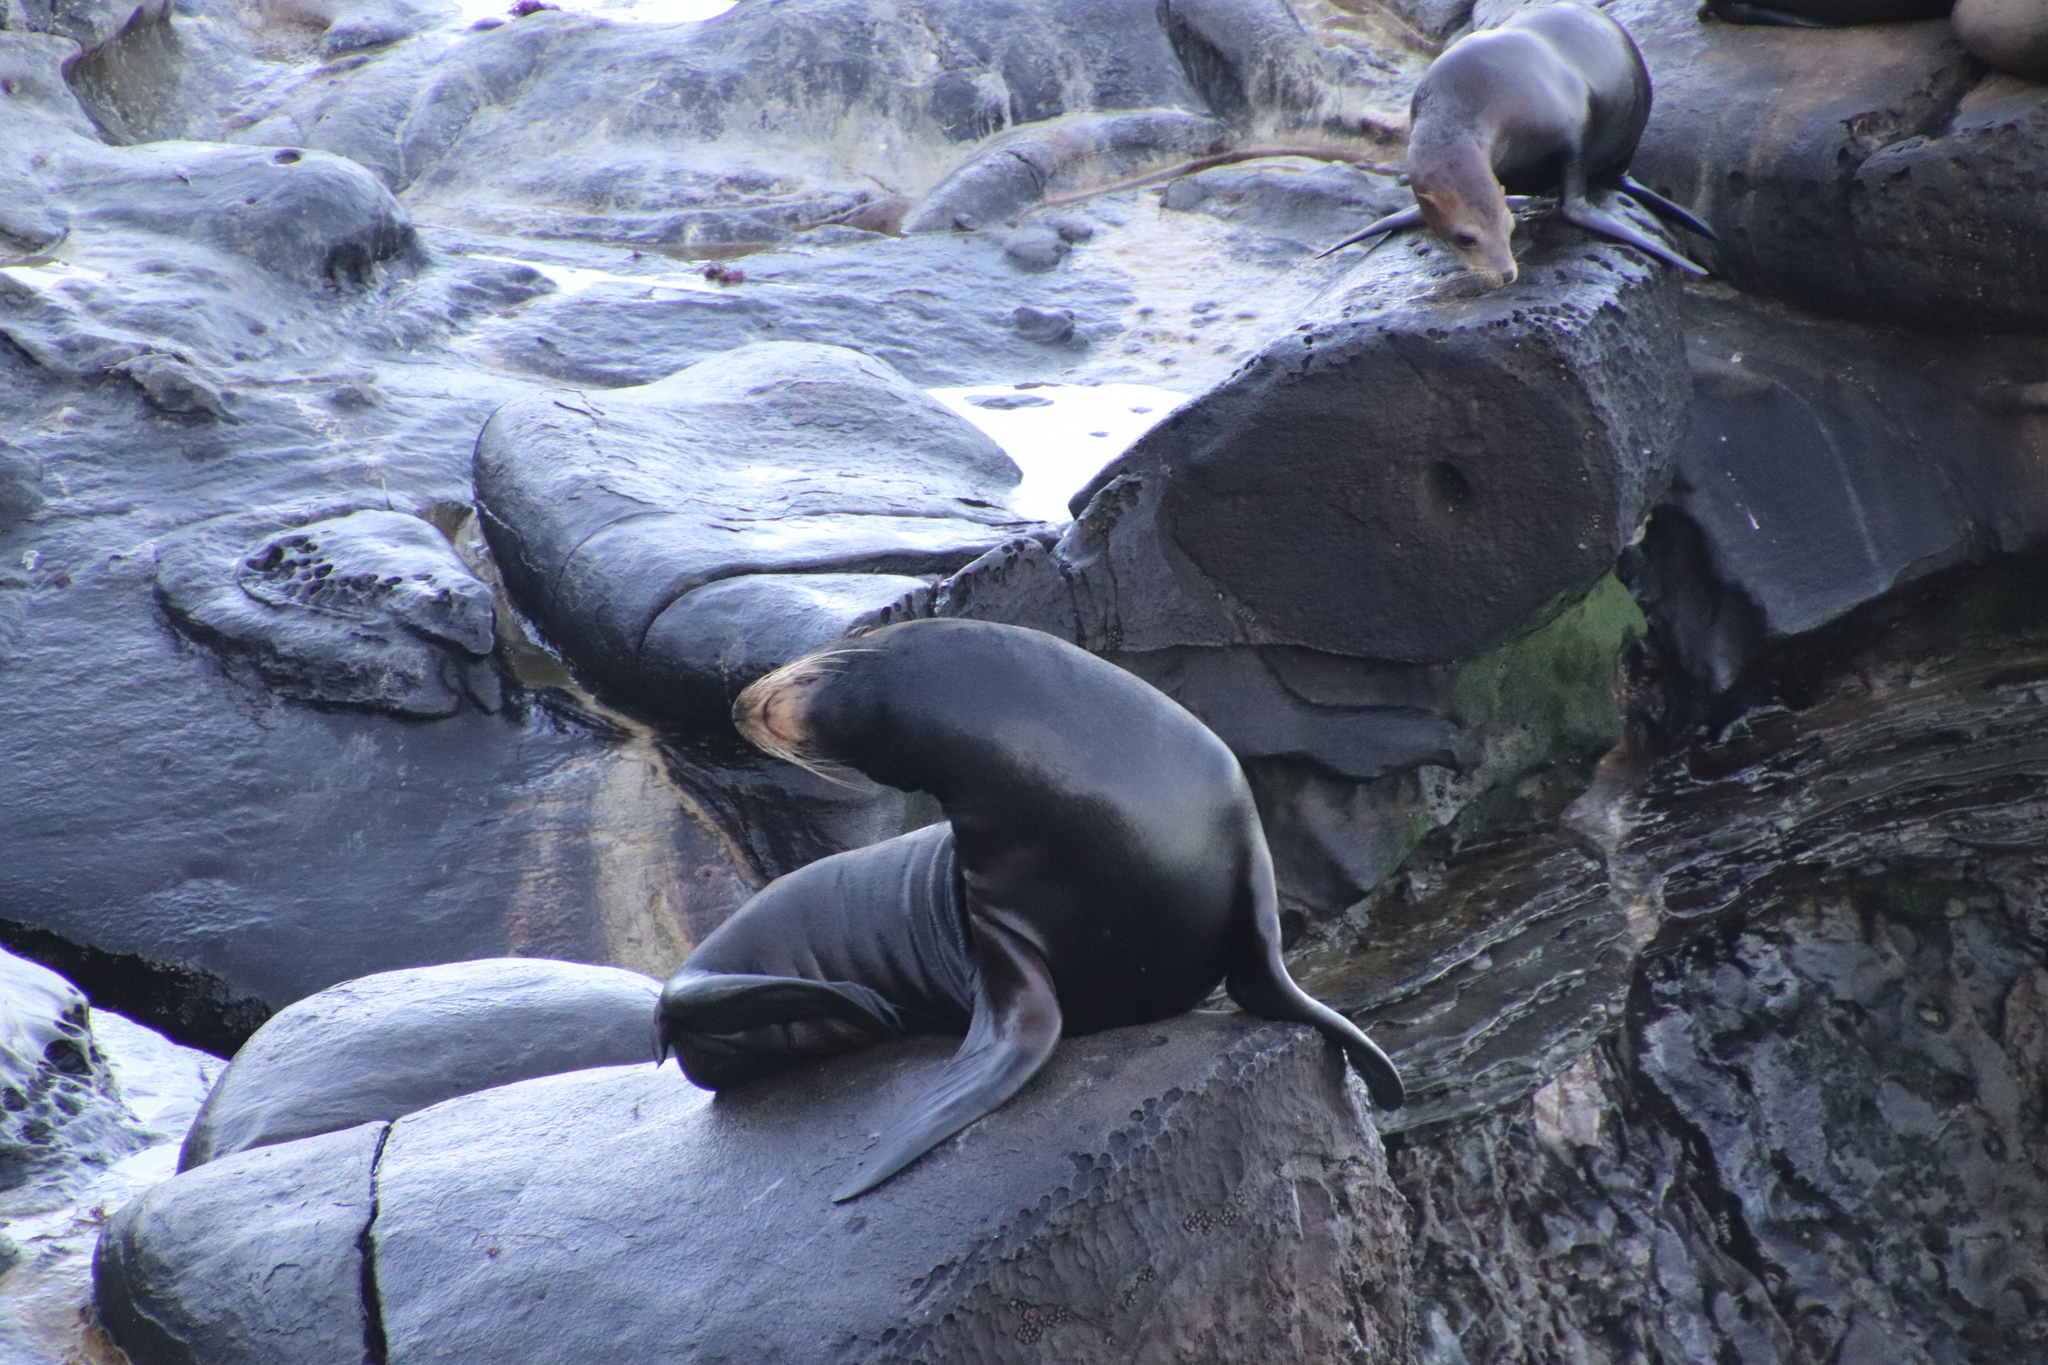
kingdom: Animalia
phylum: Chordata
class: Mammalia
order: Carnivora
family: Otariidae
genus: Zalophus
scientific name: Zalophus californianus
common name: California sea lion
